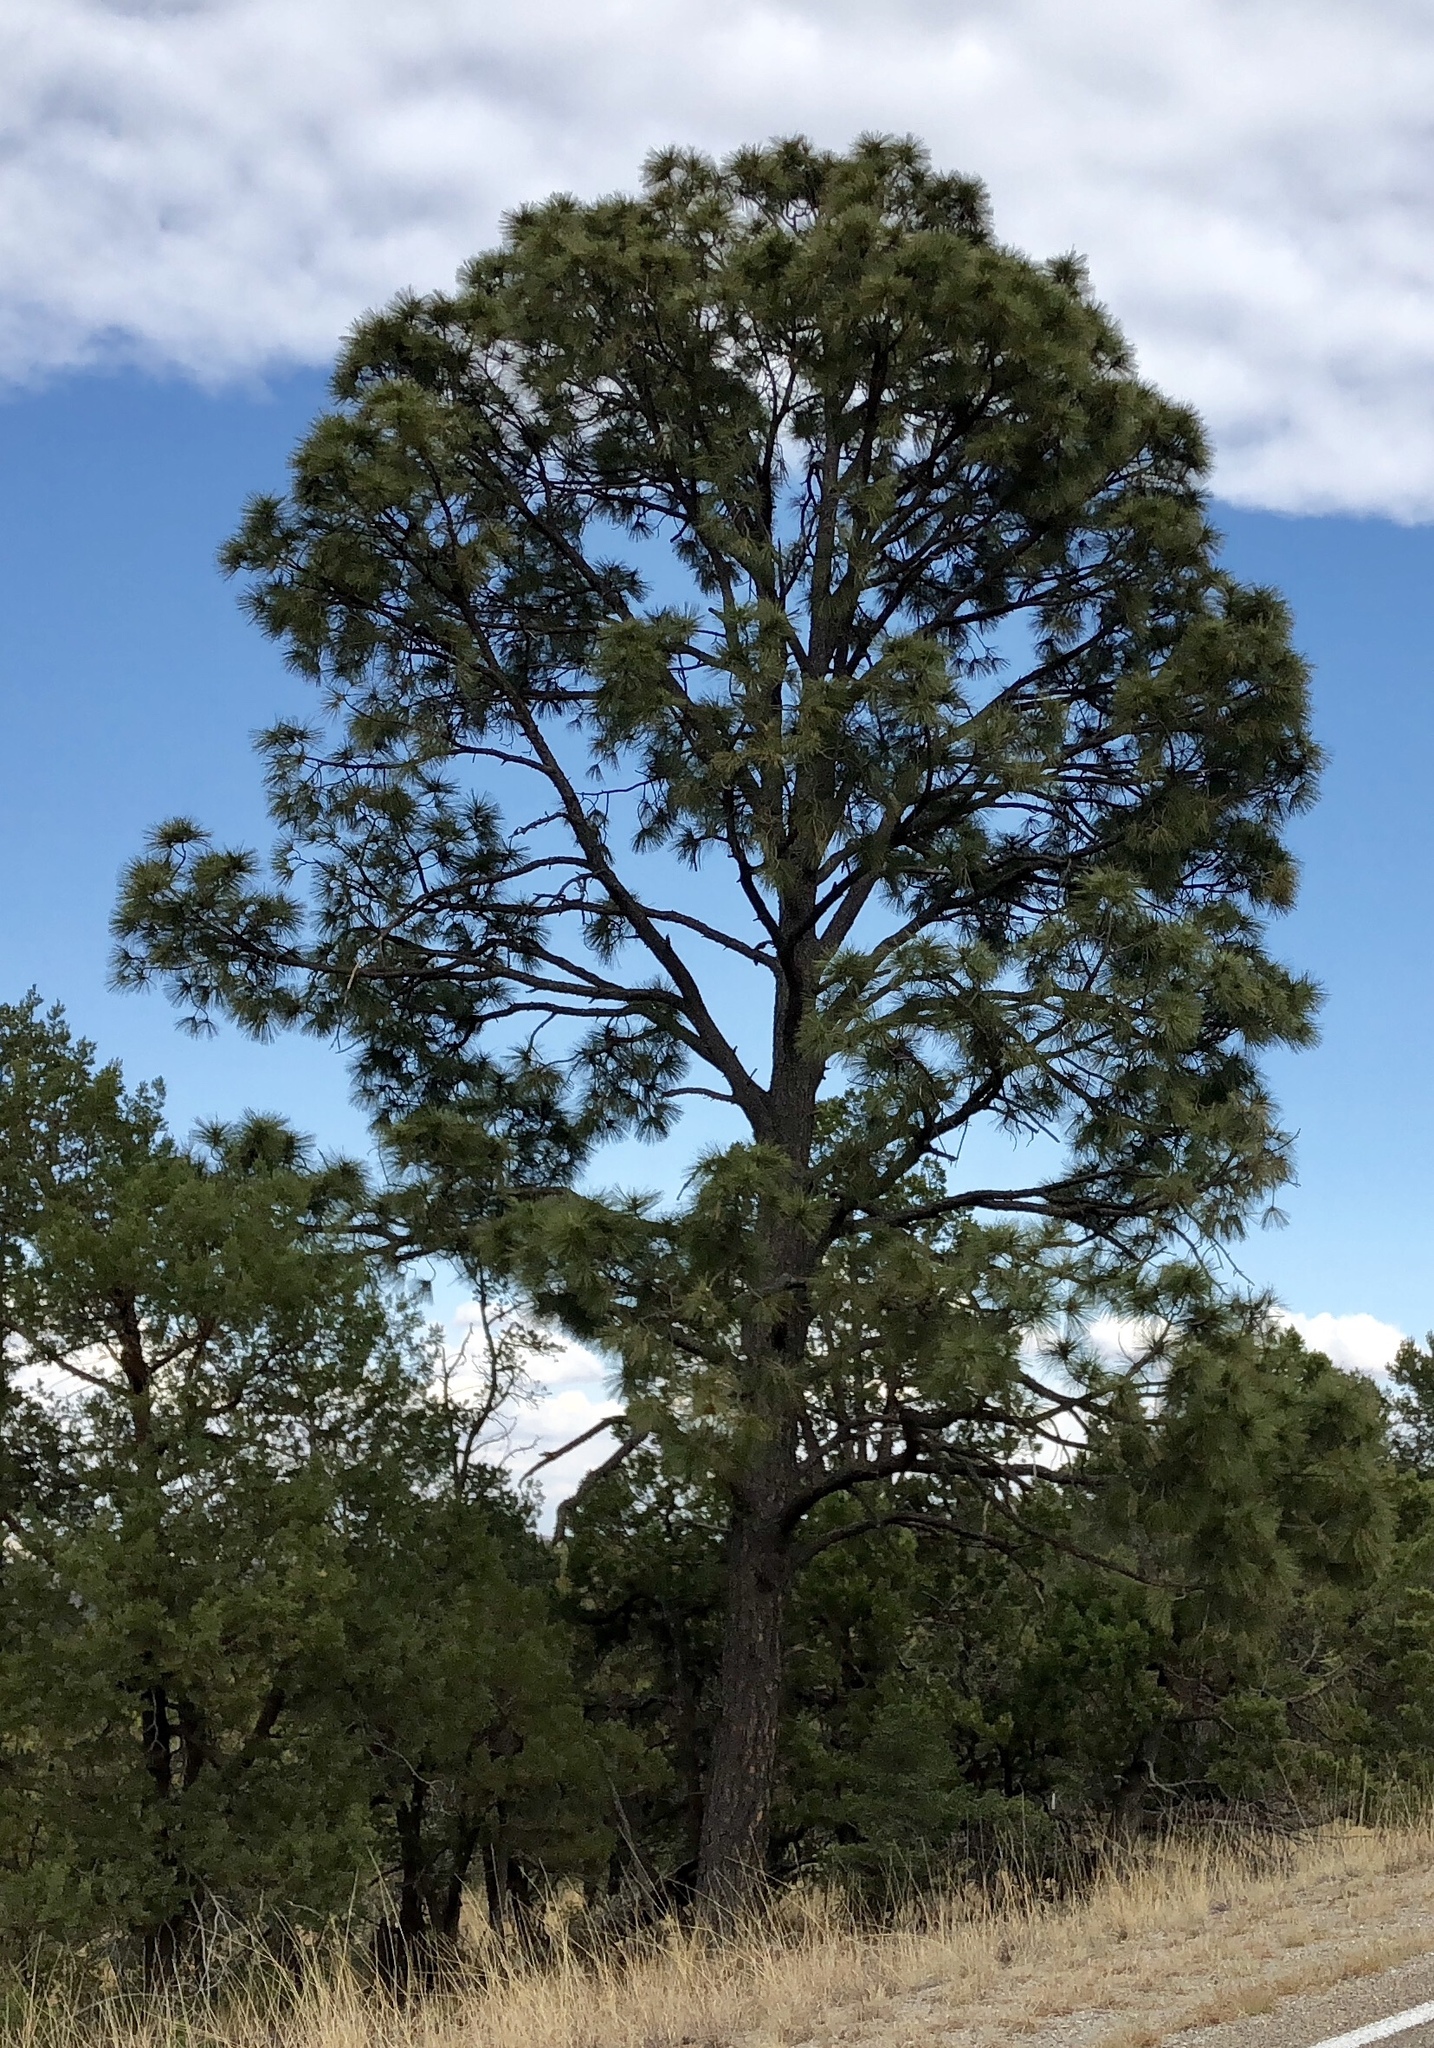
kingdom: Plantae
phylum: Tracheophyta
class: Pinopsida
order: Pinales
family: Pinaceae
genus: Pinus
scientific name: Pinus ponderosa
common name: Western yellow-pine
